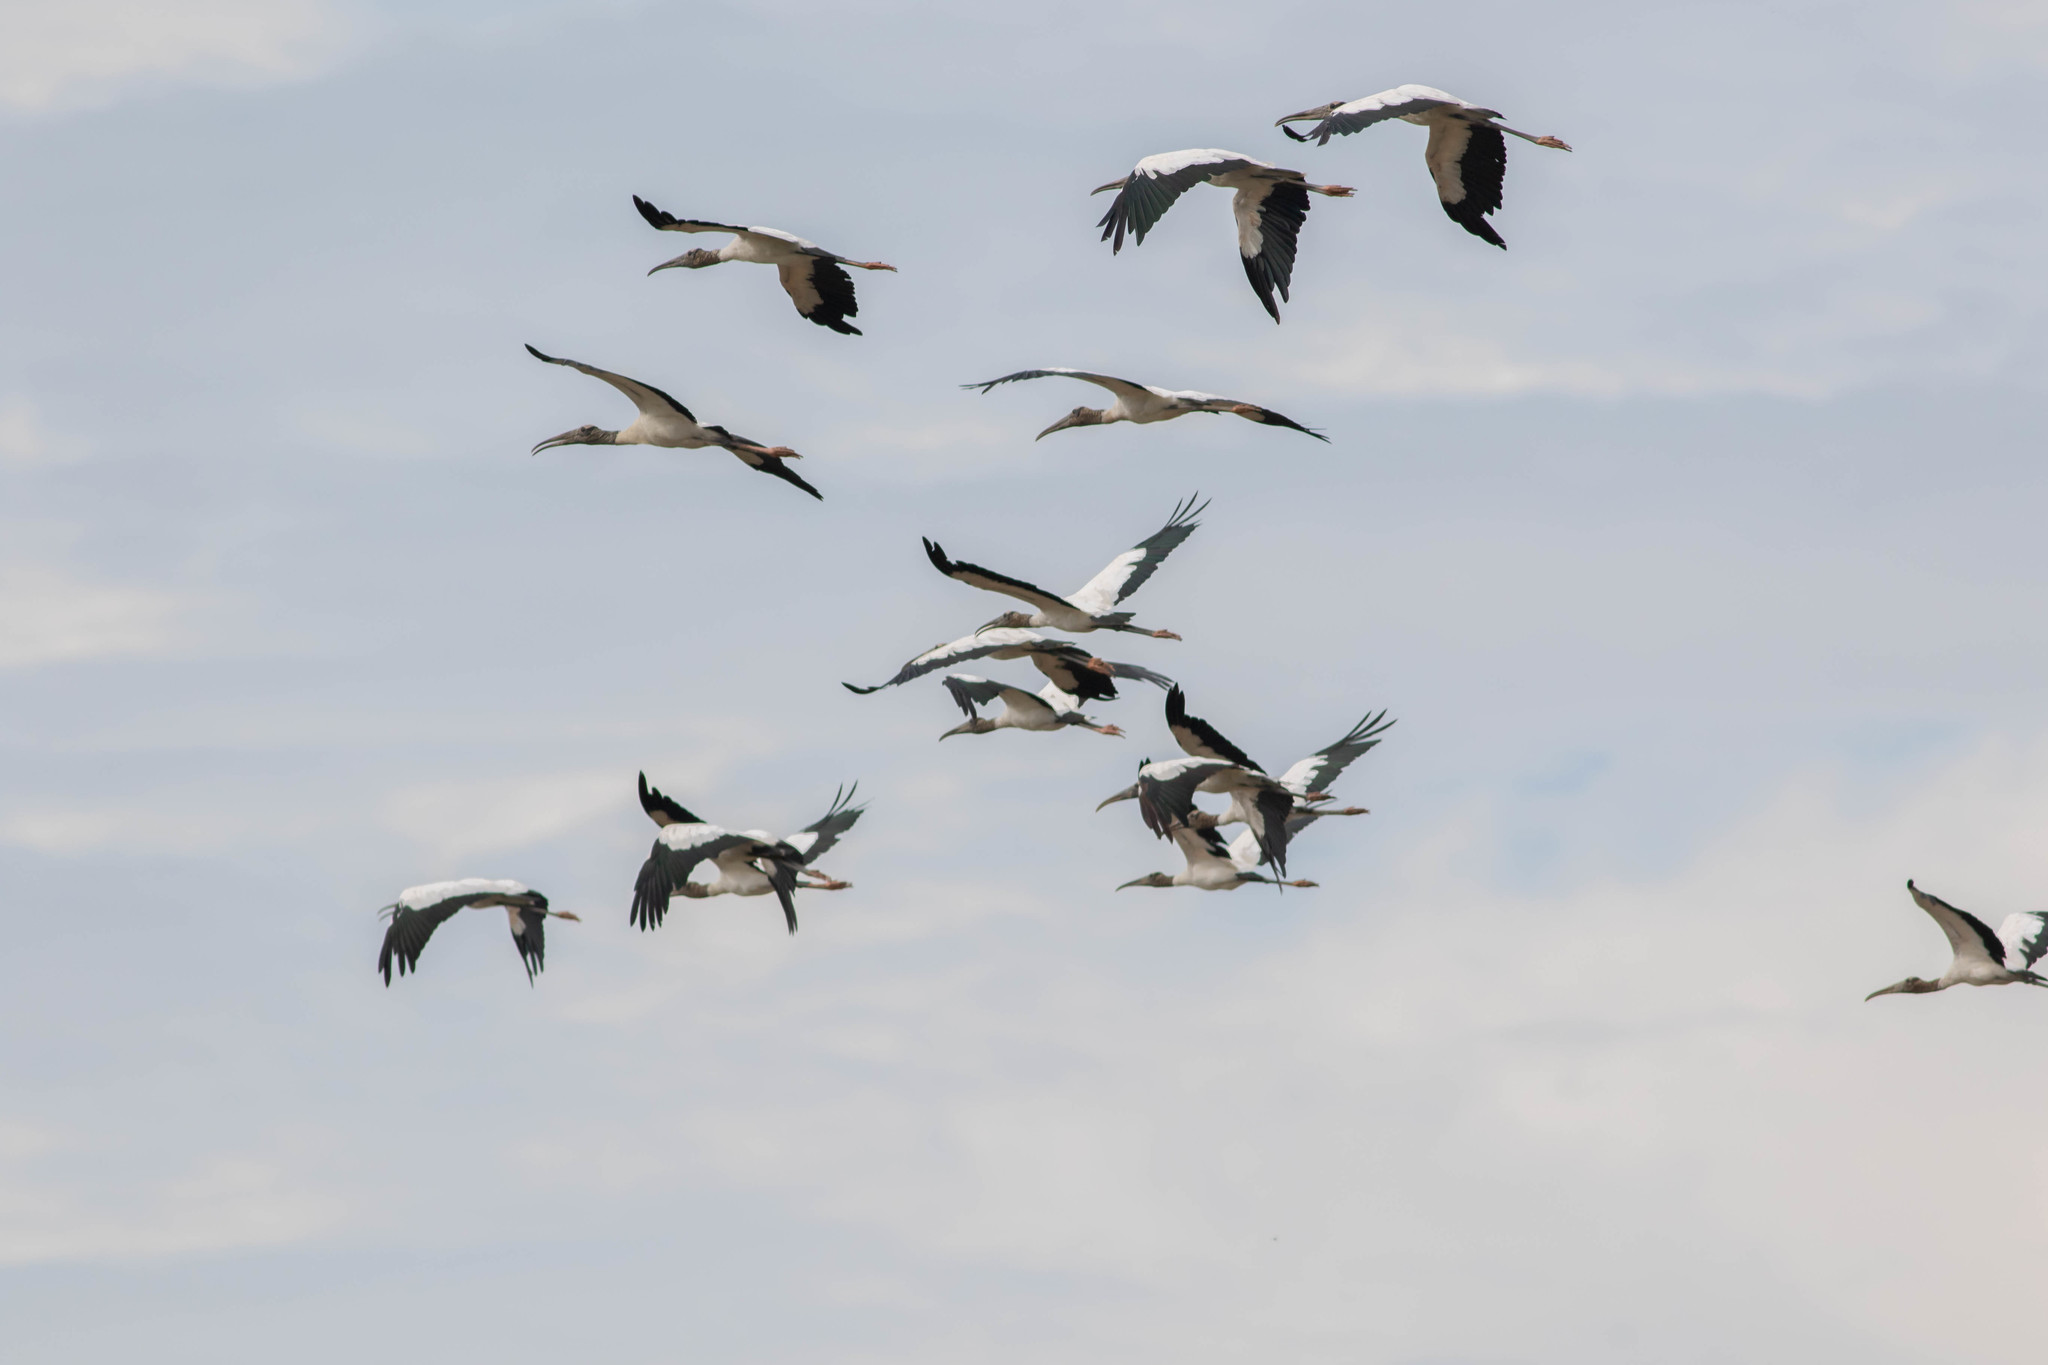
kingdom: Animalia
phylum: Chordata
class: Aves
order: Ciconiiformes
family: Ciconiidae
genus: Mycteria
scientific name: Mycteria americana
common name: Wood stork
